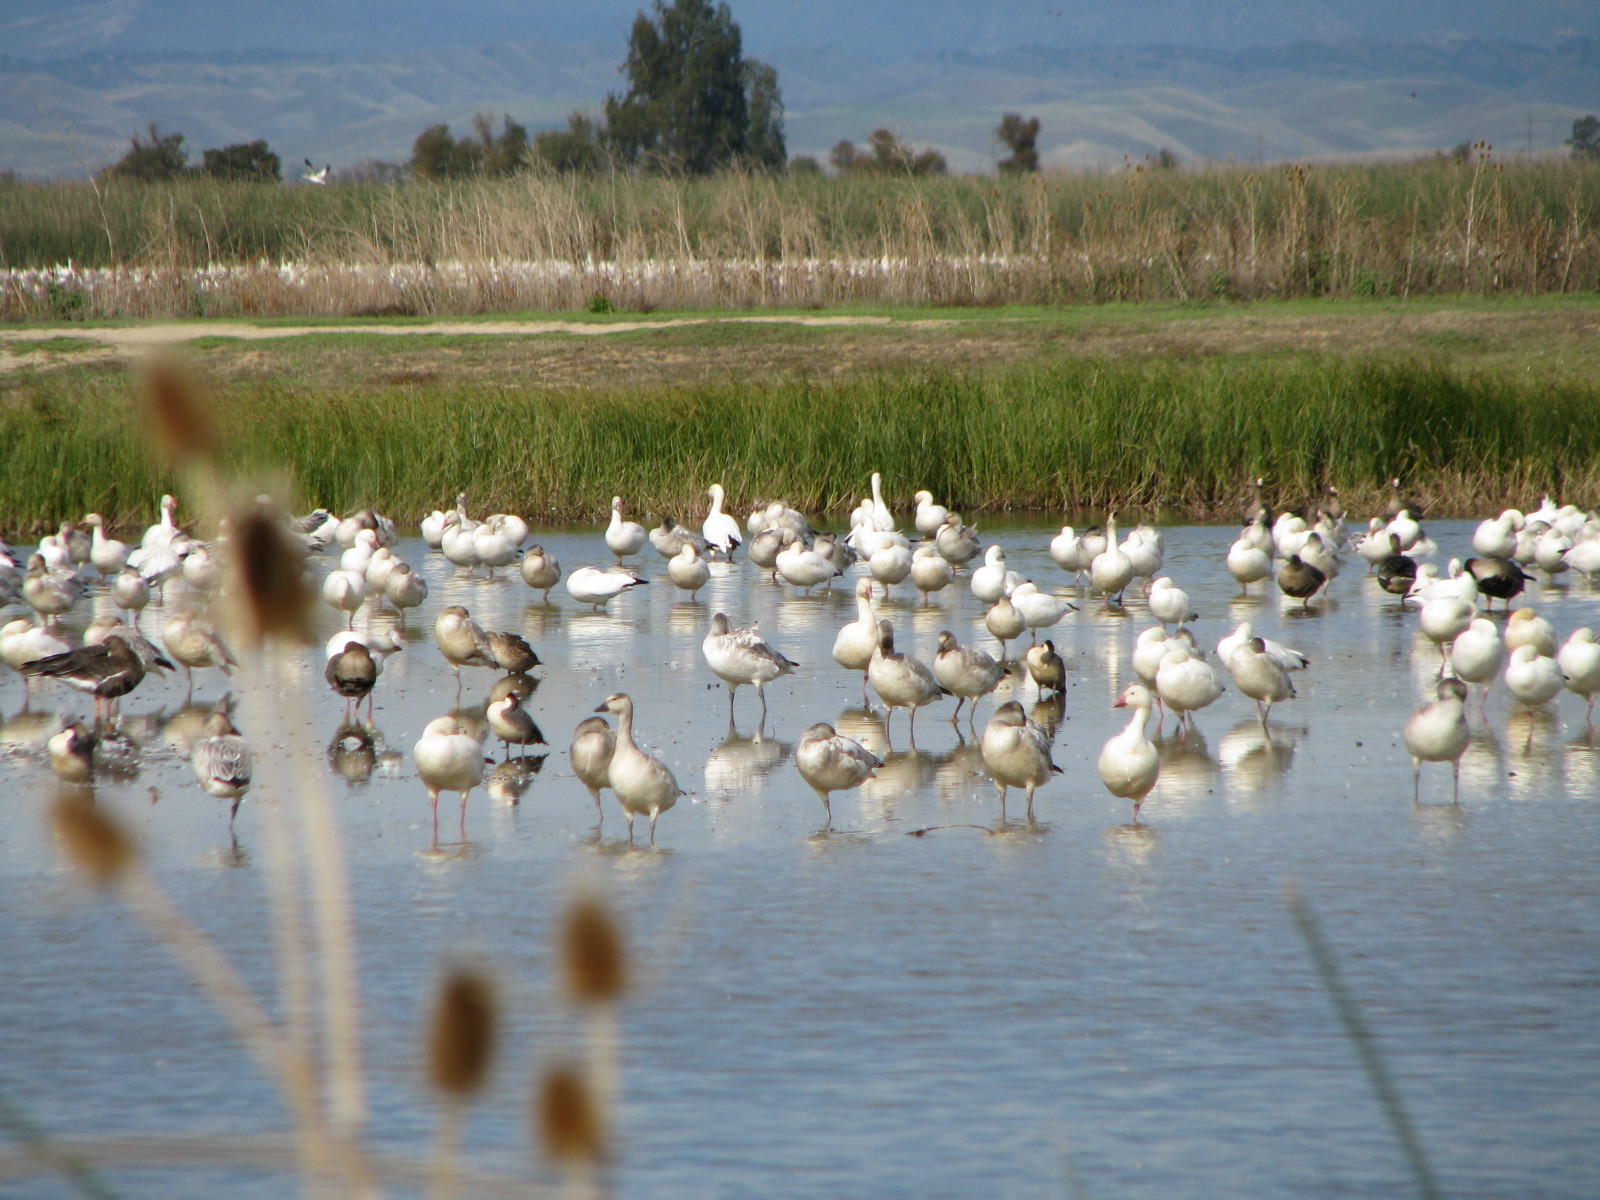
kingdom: Animalia
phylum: Chordata
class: Aves
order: Anseriformes
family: Anatidae
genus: Anser
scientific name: Anser caerulescens
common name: Snow goose
